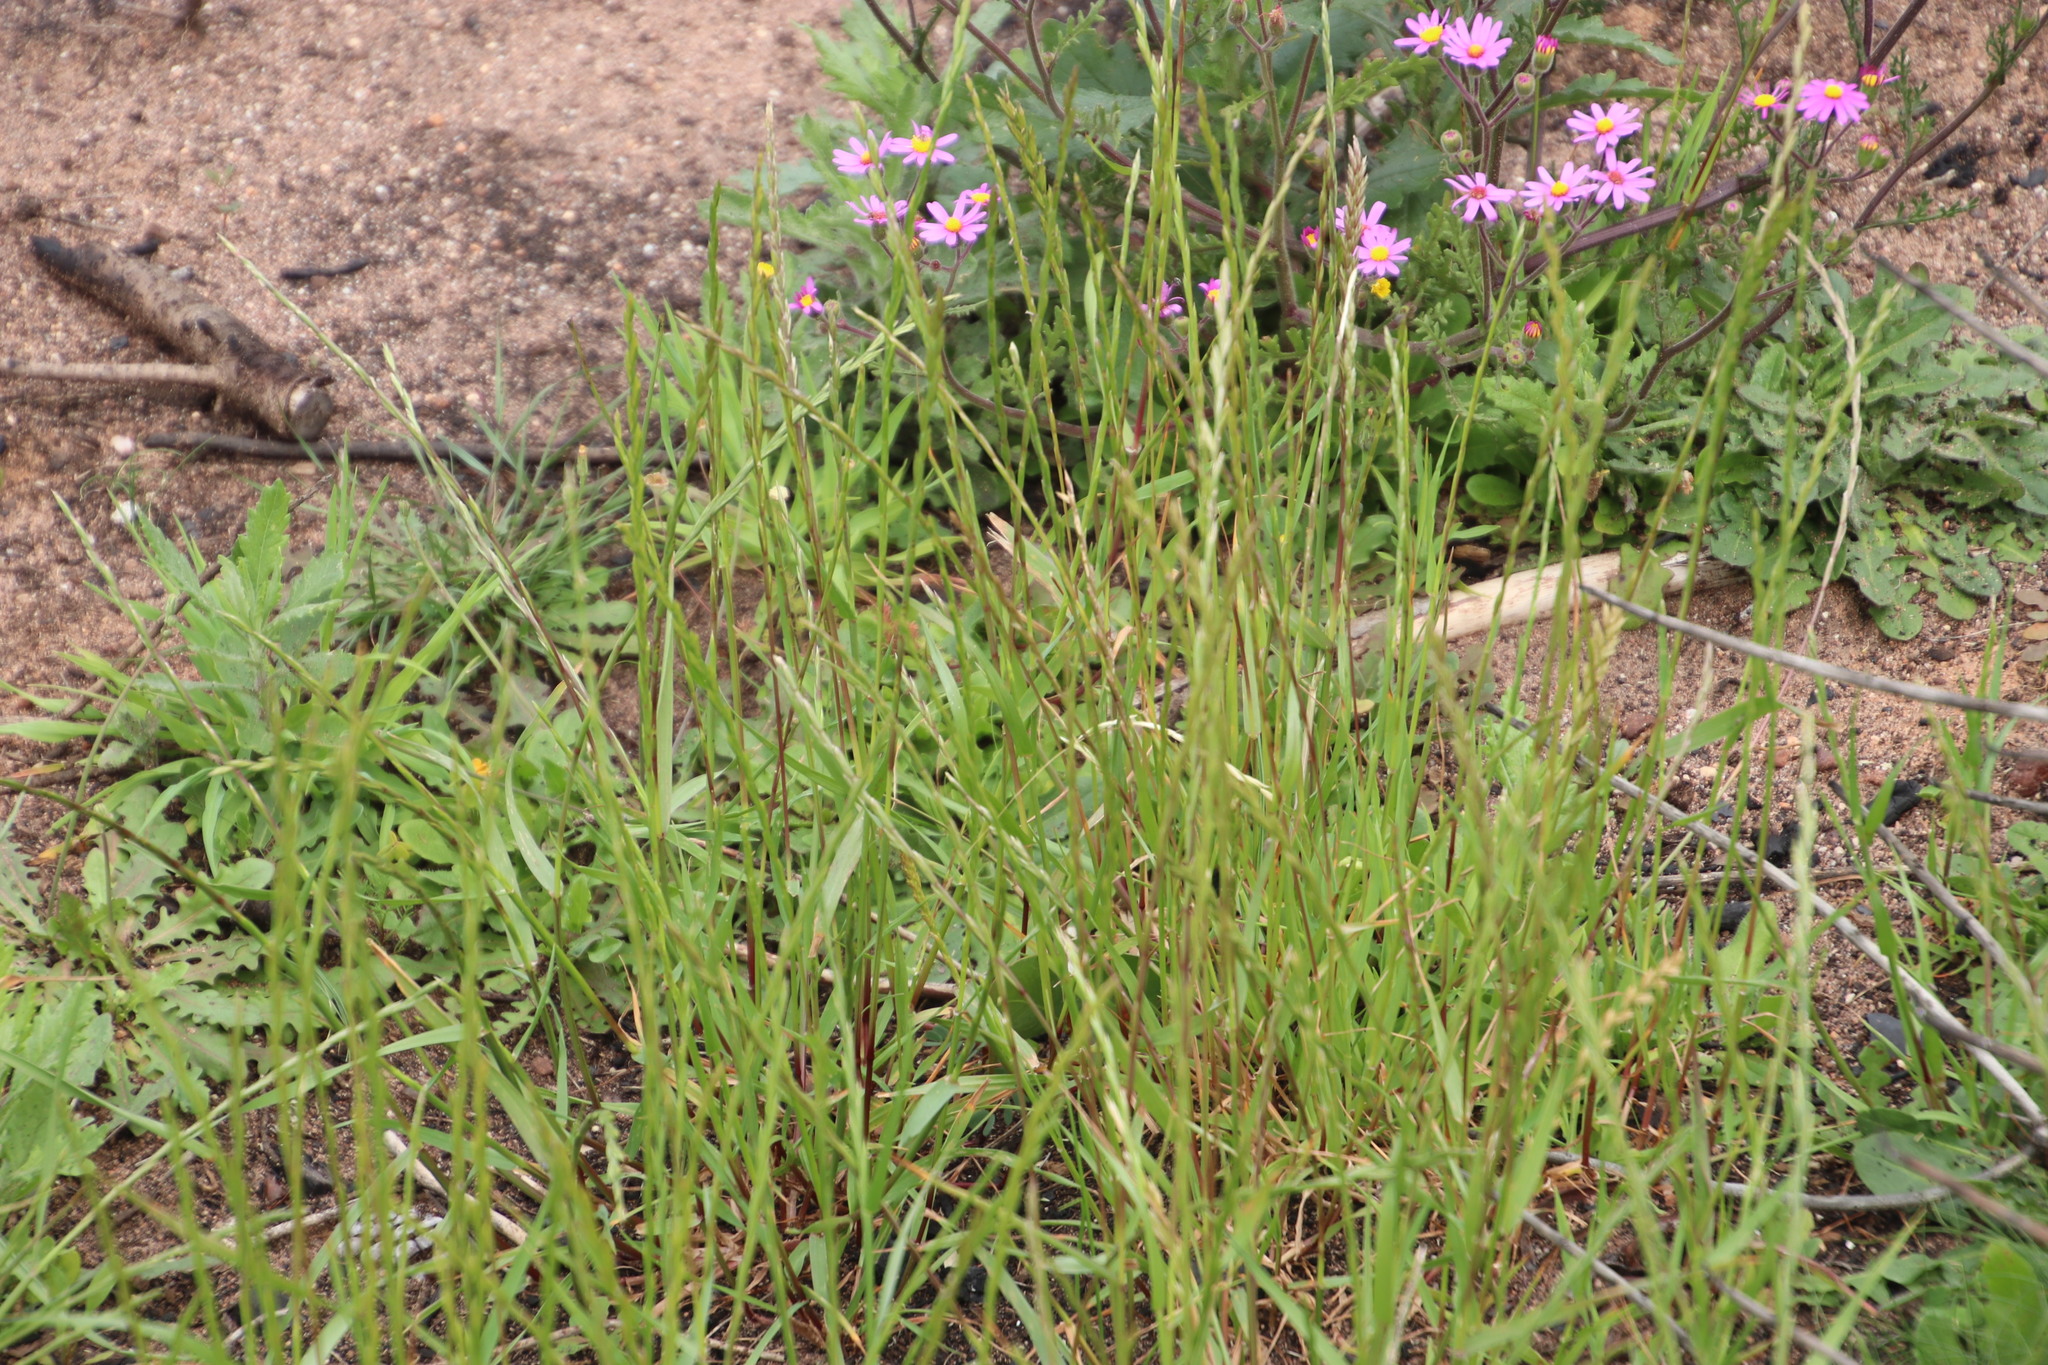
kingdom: Plantae
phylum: Tracheophyta
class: Liliopsida
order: Poales
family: Poaceae
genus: Lolium
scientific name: Lolium perenne
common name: Perennial ryegrass
